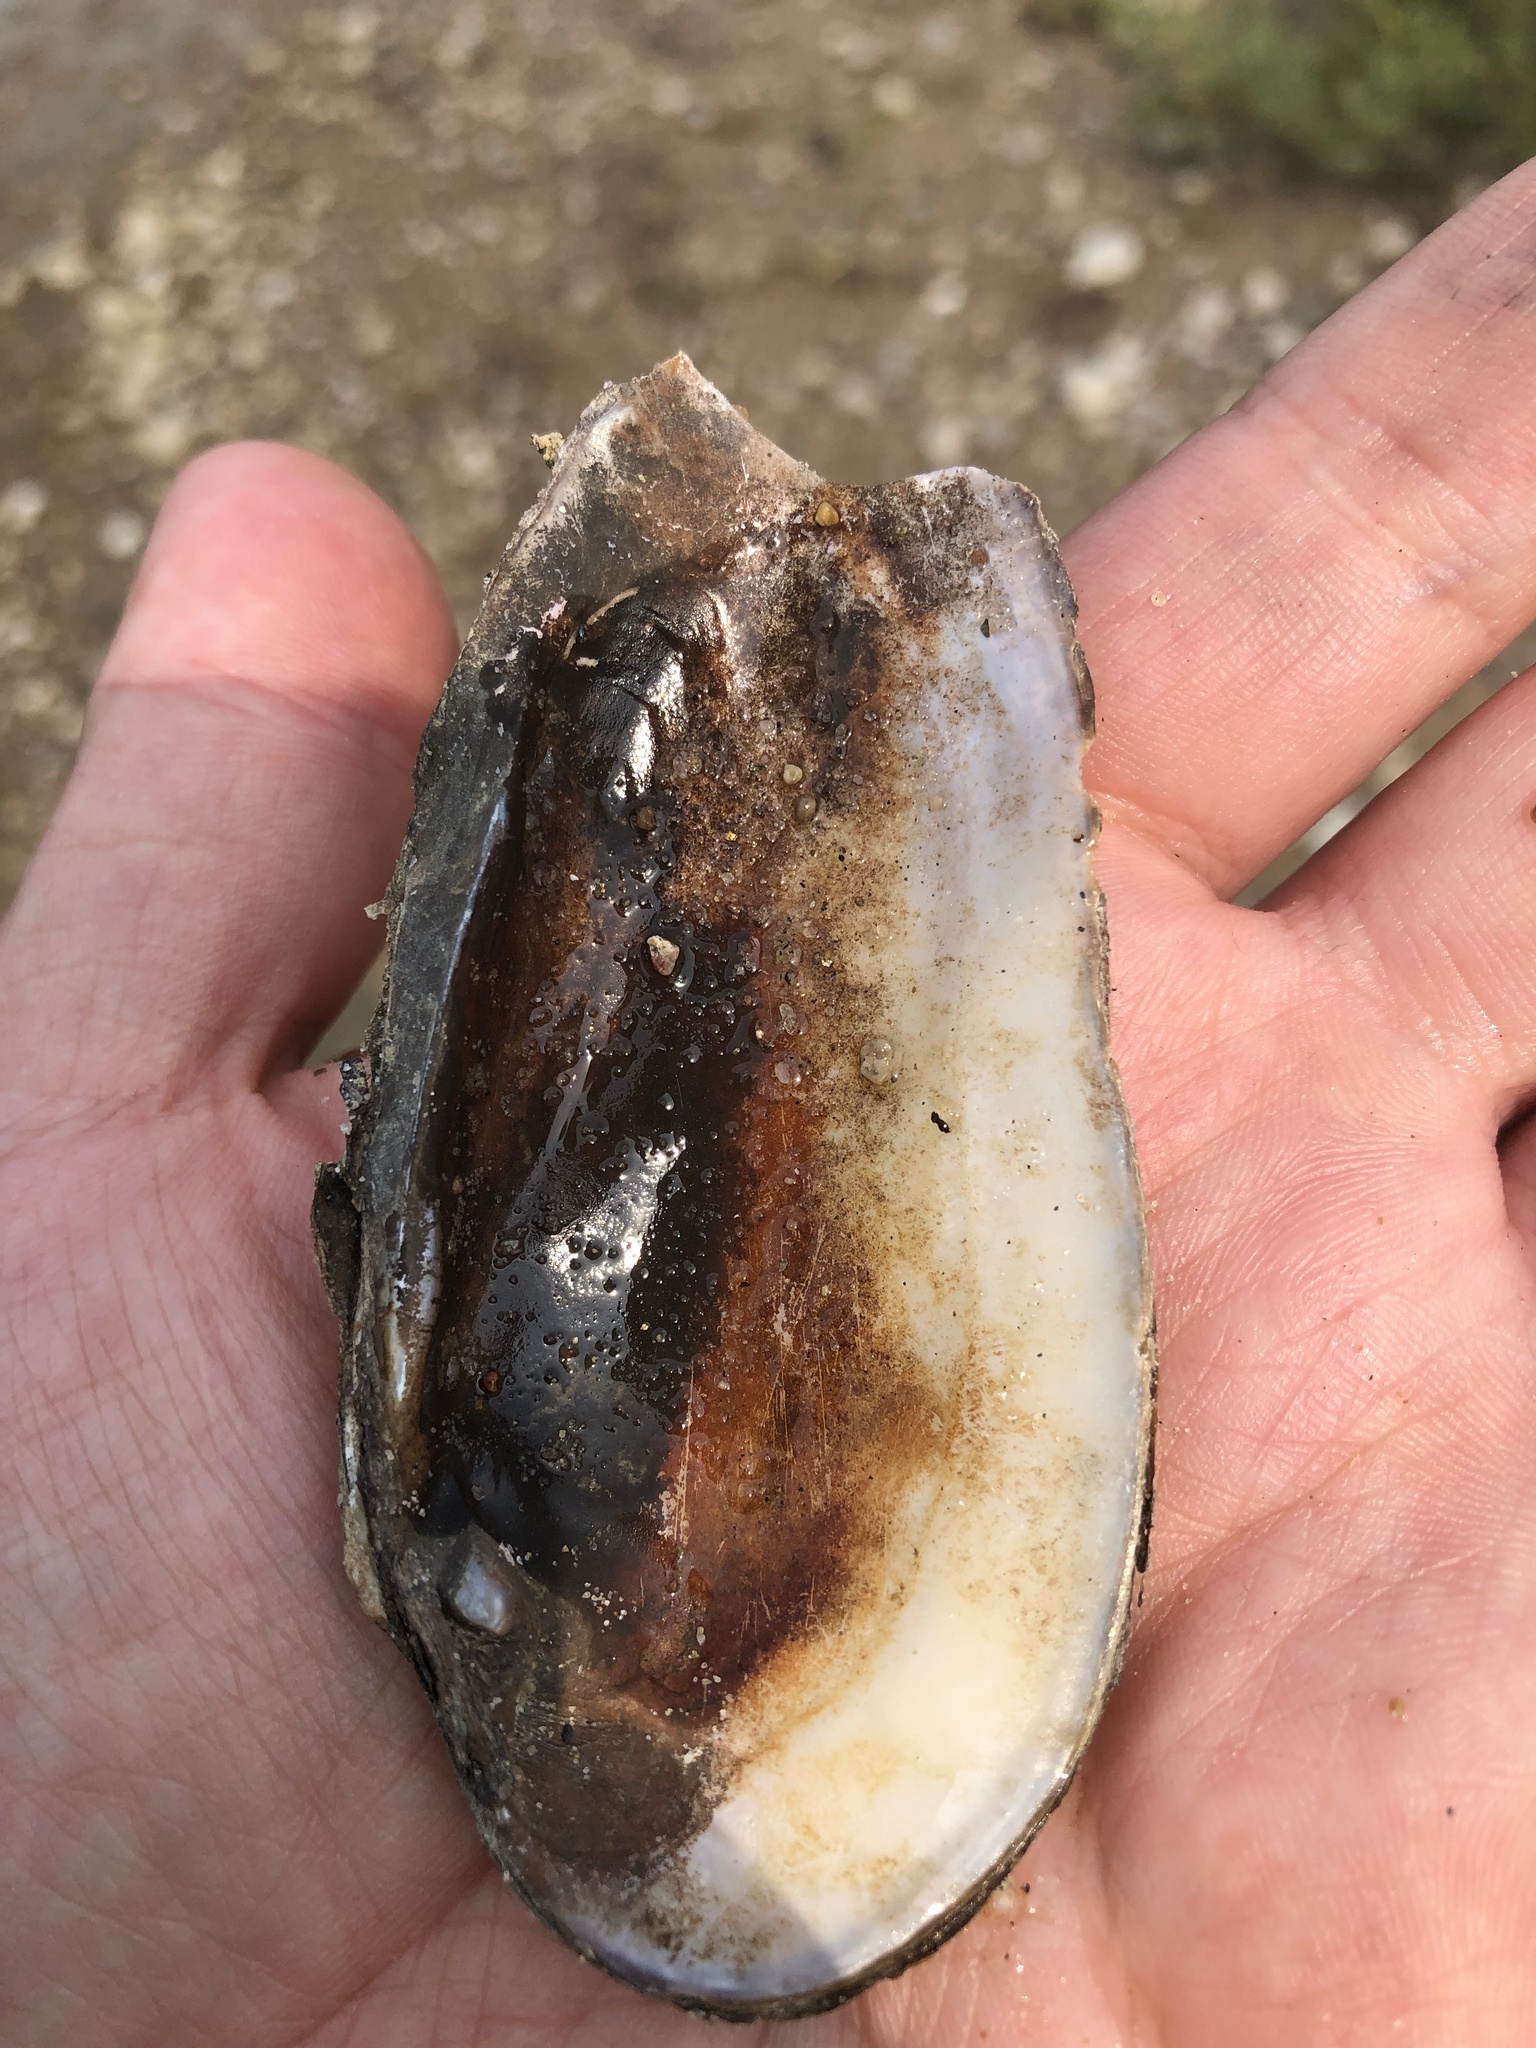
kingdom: Animalia
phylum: Mollusca
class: Bivalvia
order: Unionida
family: Unionidae
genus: Eurynia
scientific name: Eurynia dilatata
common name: Spike
